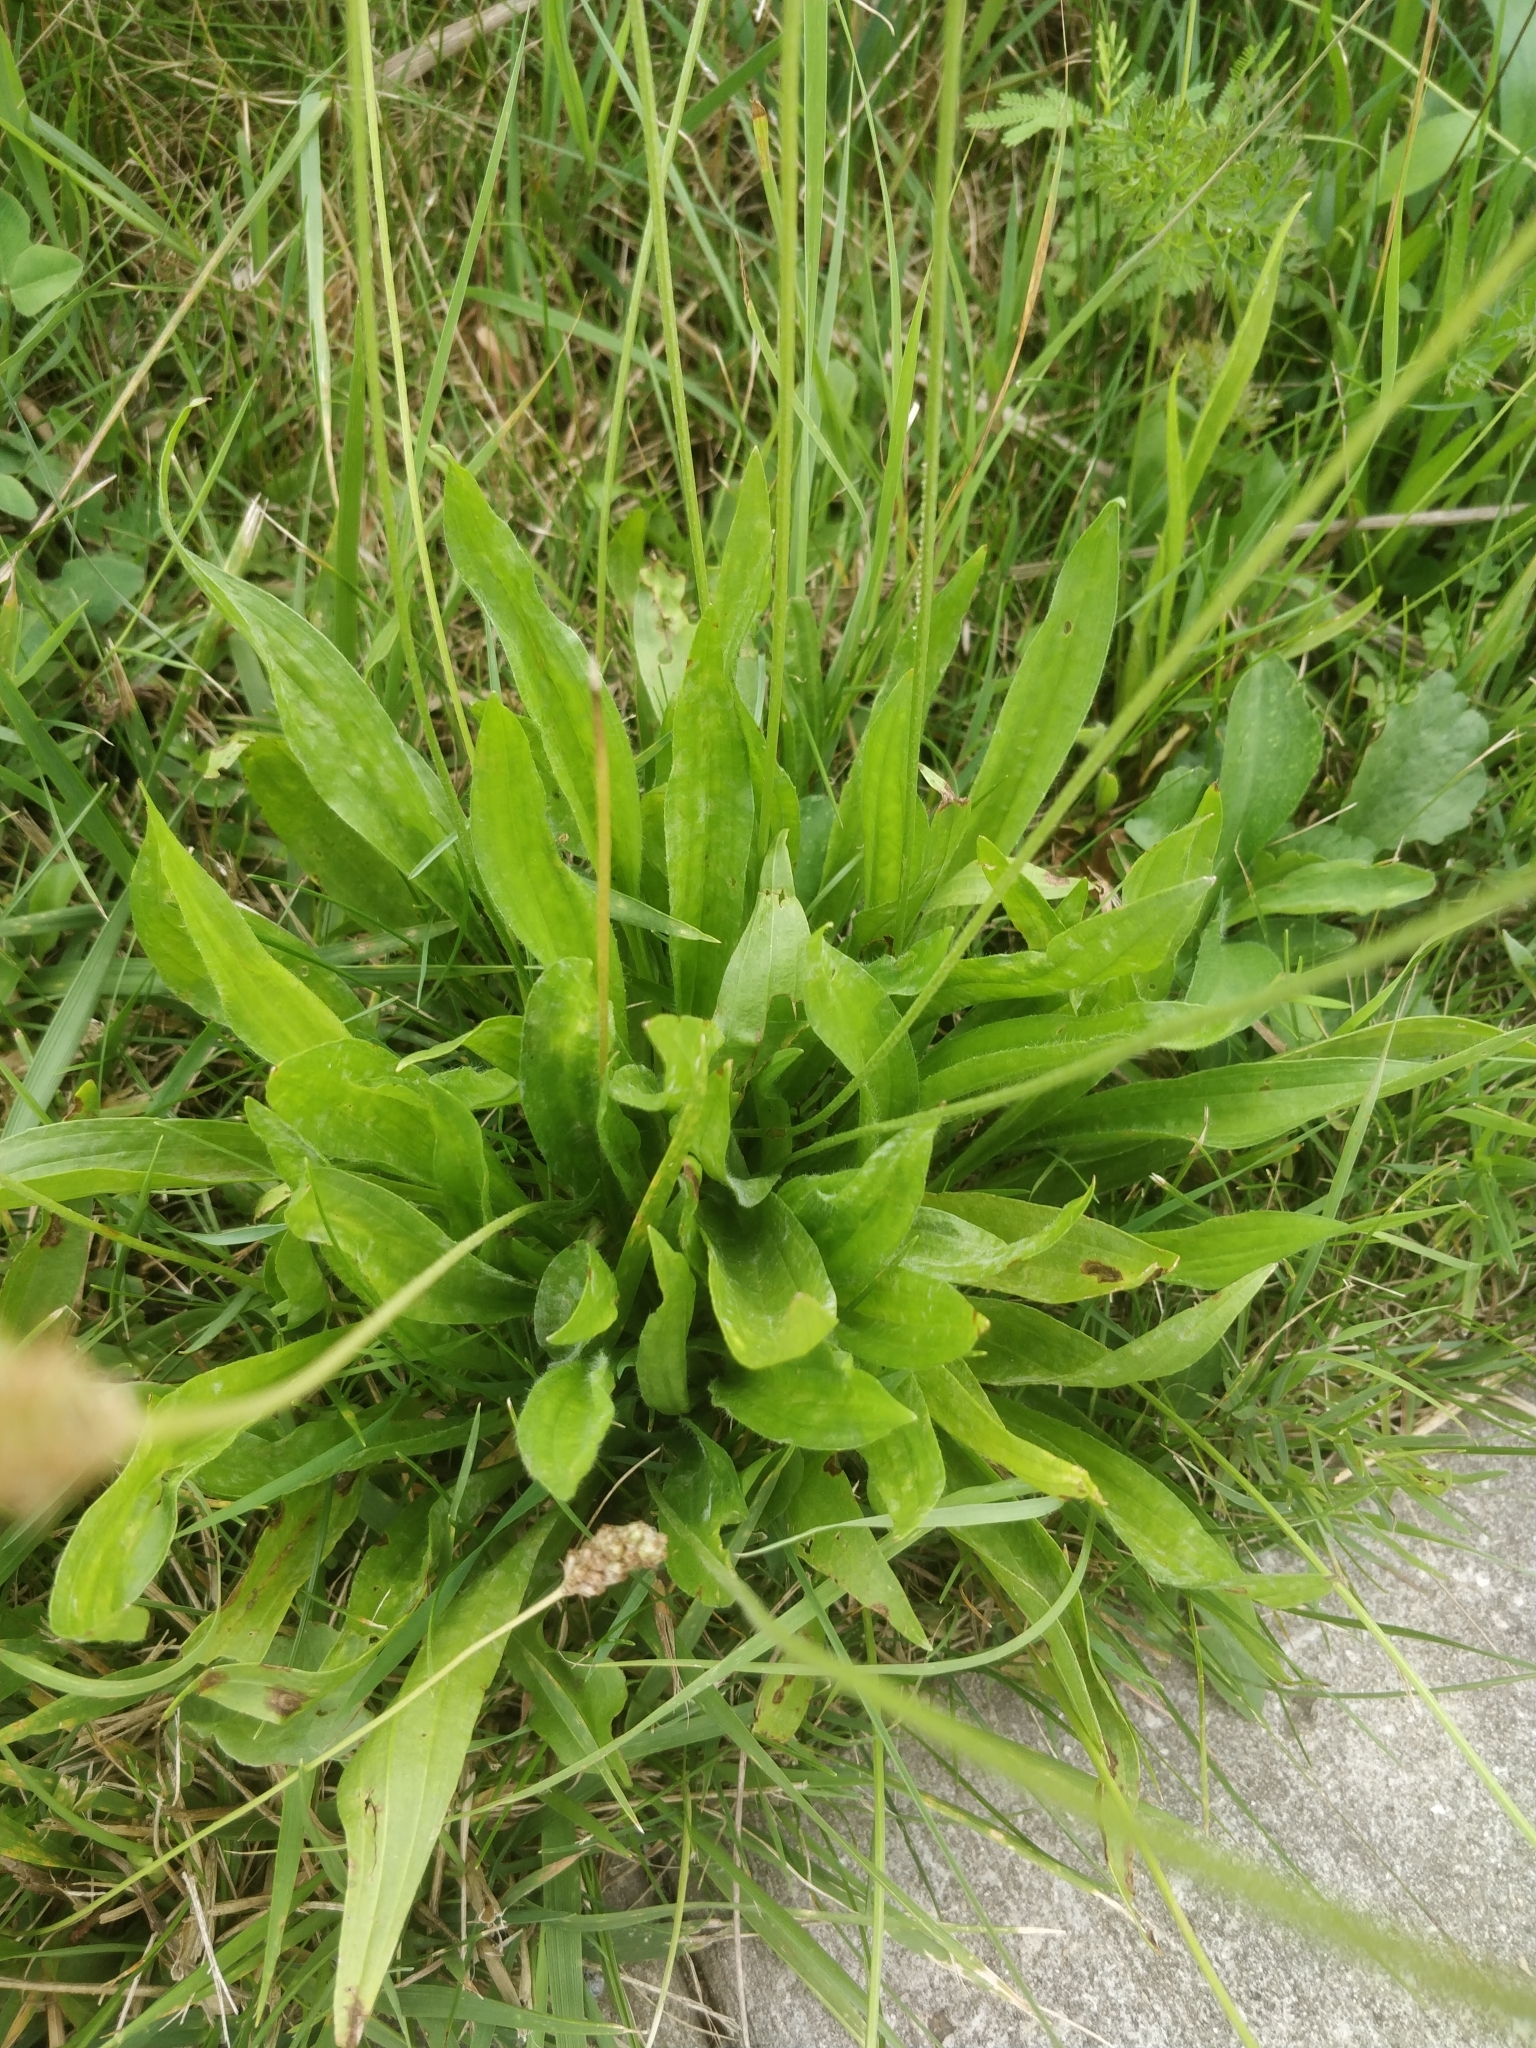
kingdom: Plantae
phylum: Tracheophyta
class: Magnoliopsida
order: Lamiales
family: Plantaginaceae
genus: Plantago
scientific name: Plantago lanceolata
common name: Ribwort plantain
